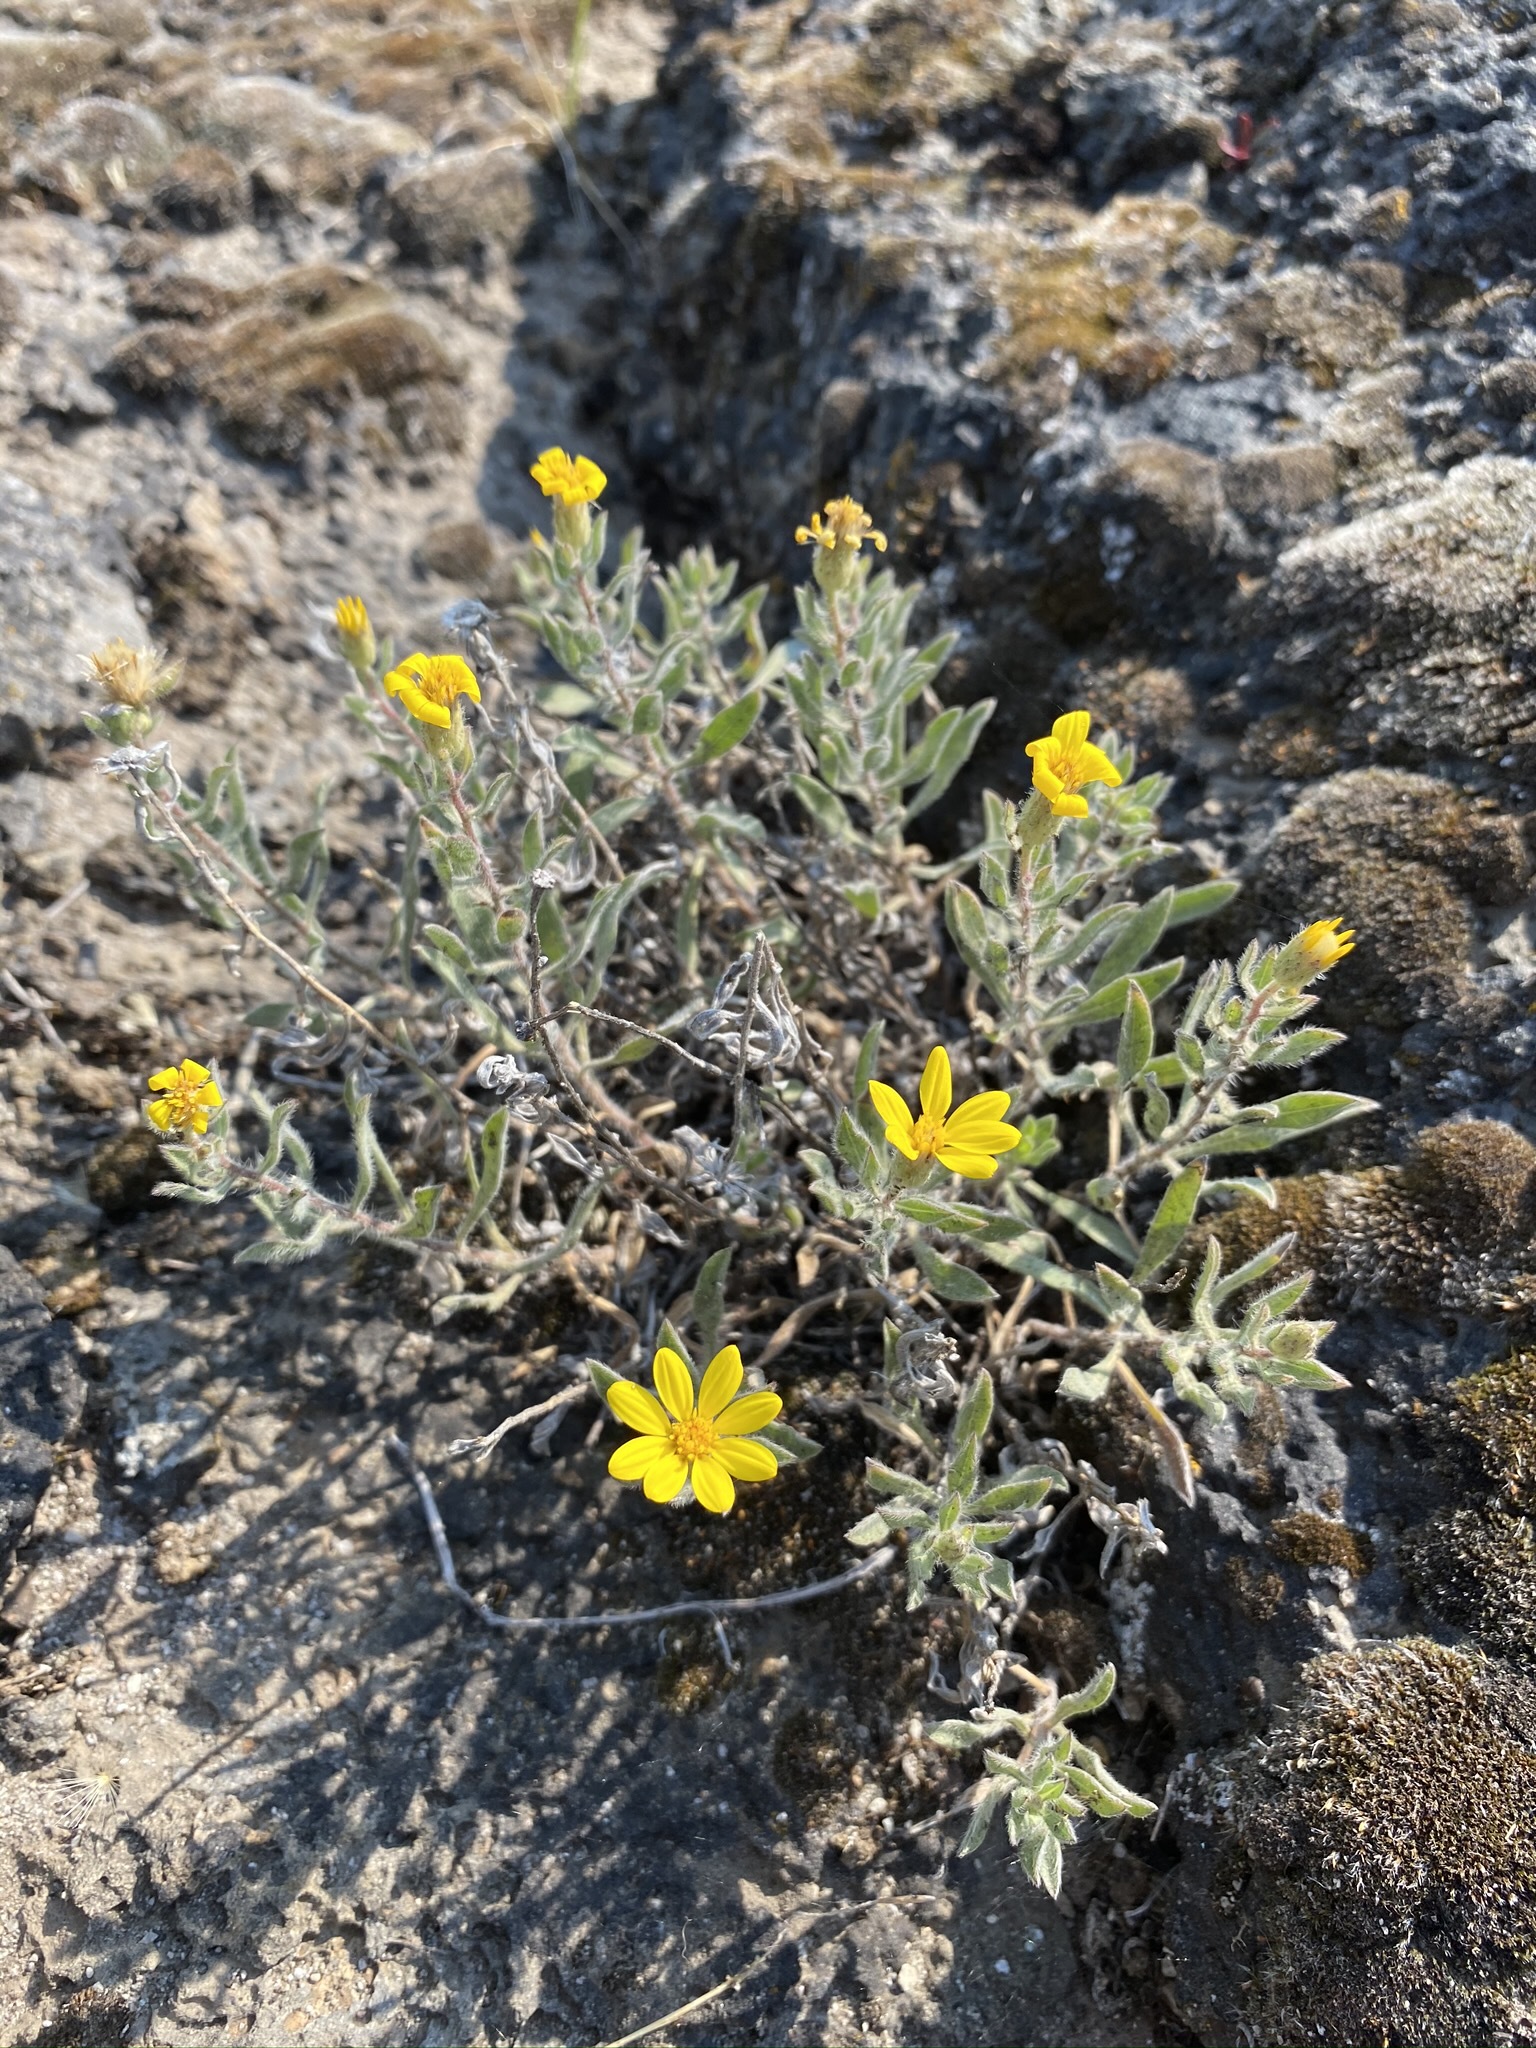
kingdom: Plantae
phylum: Tracheophyta
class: Magnoliopsida
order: Asterales
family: Asteraceae
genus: Heterotheca
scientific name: Heterotheca orovillosa
